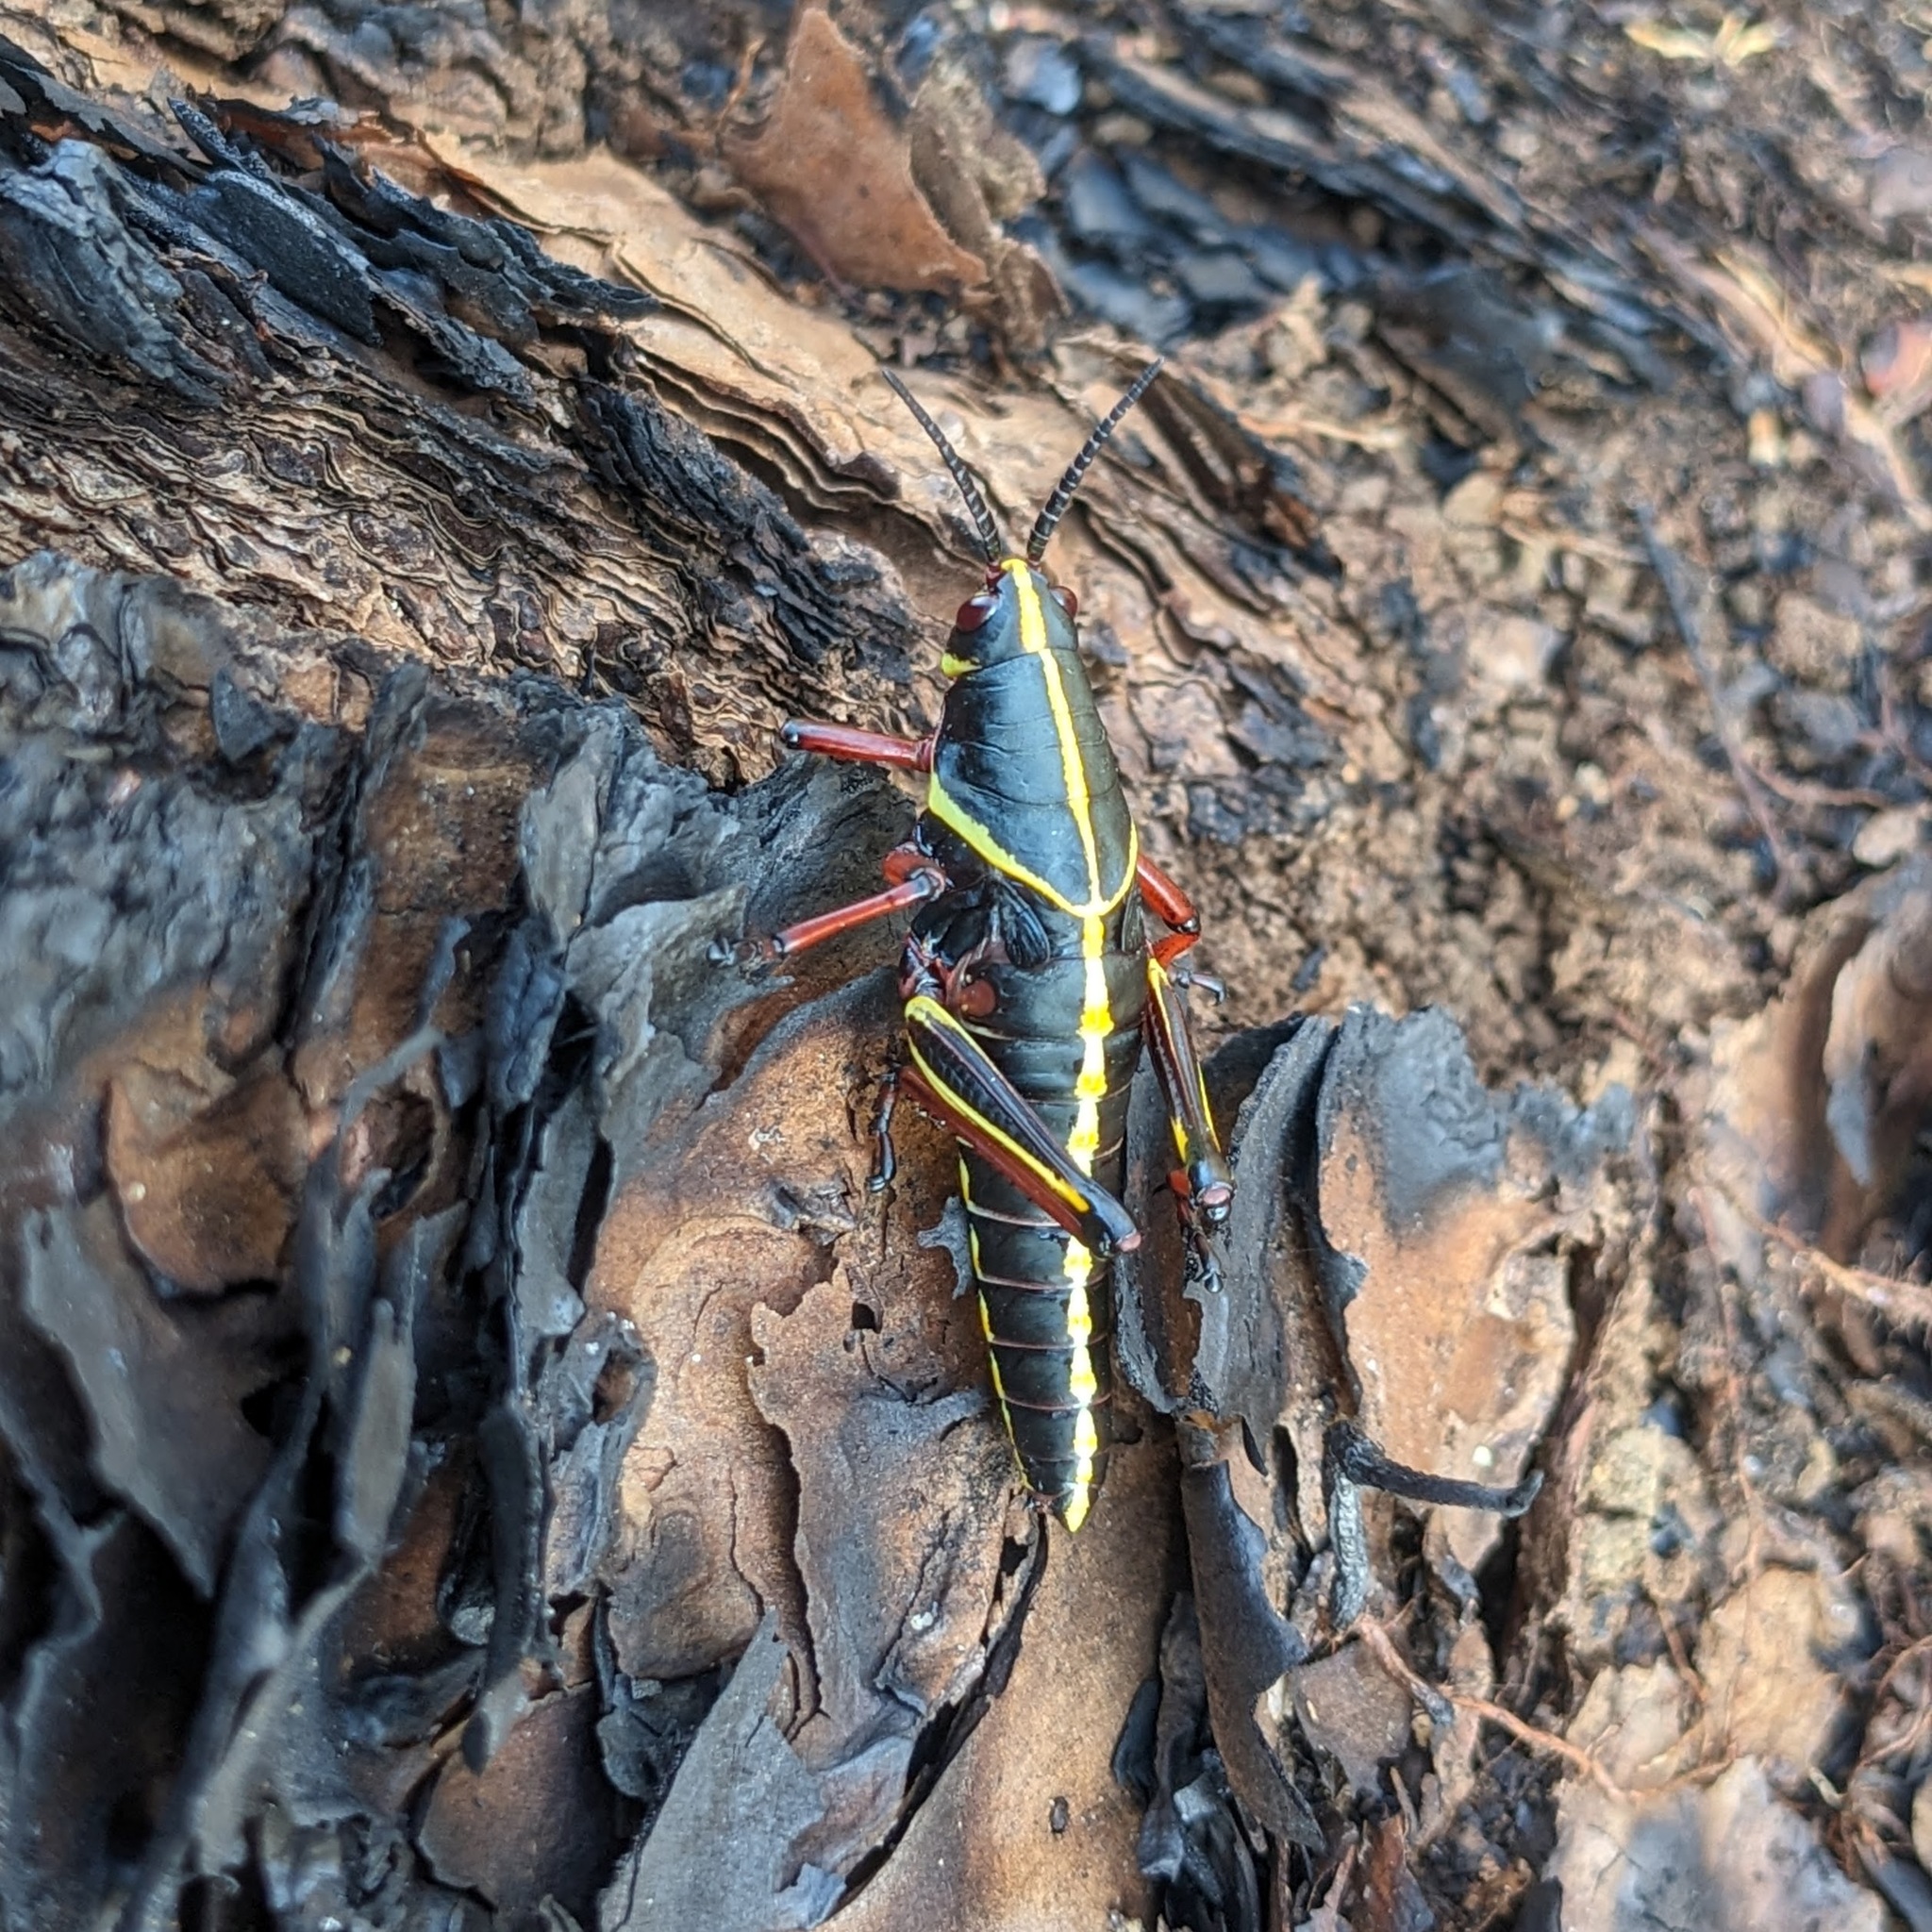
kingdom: Animalia
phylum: Arthropoda
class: Insecta
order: Orthoptera
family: Romaleidae
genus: Romalea
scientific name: Romalea microptera
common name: Eastern lubber grasshopper
